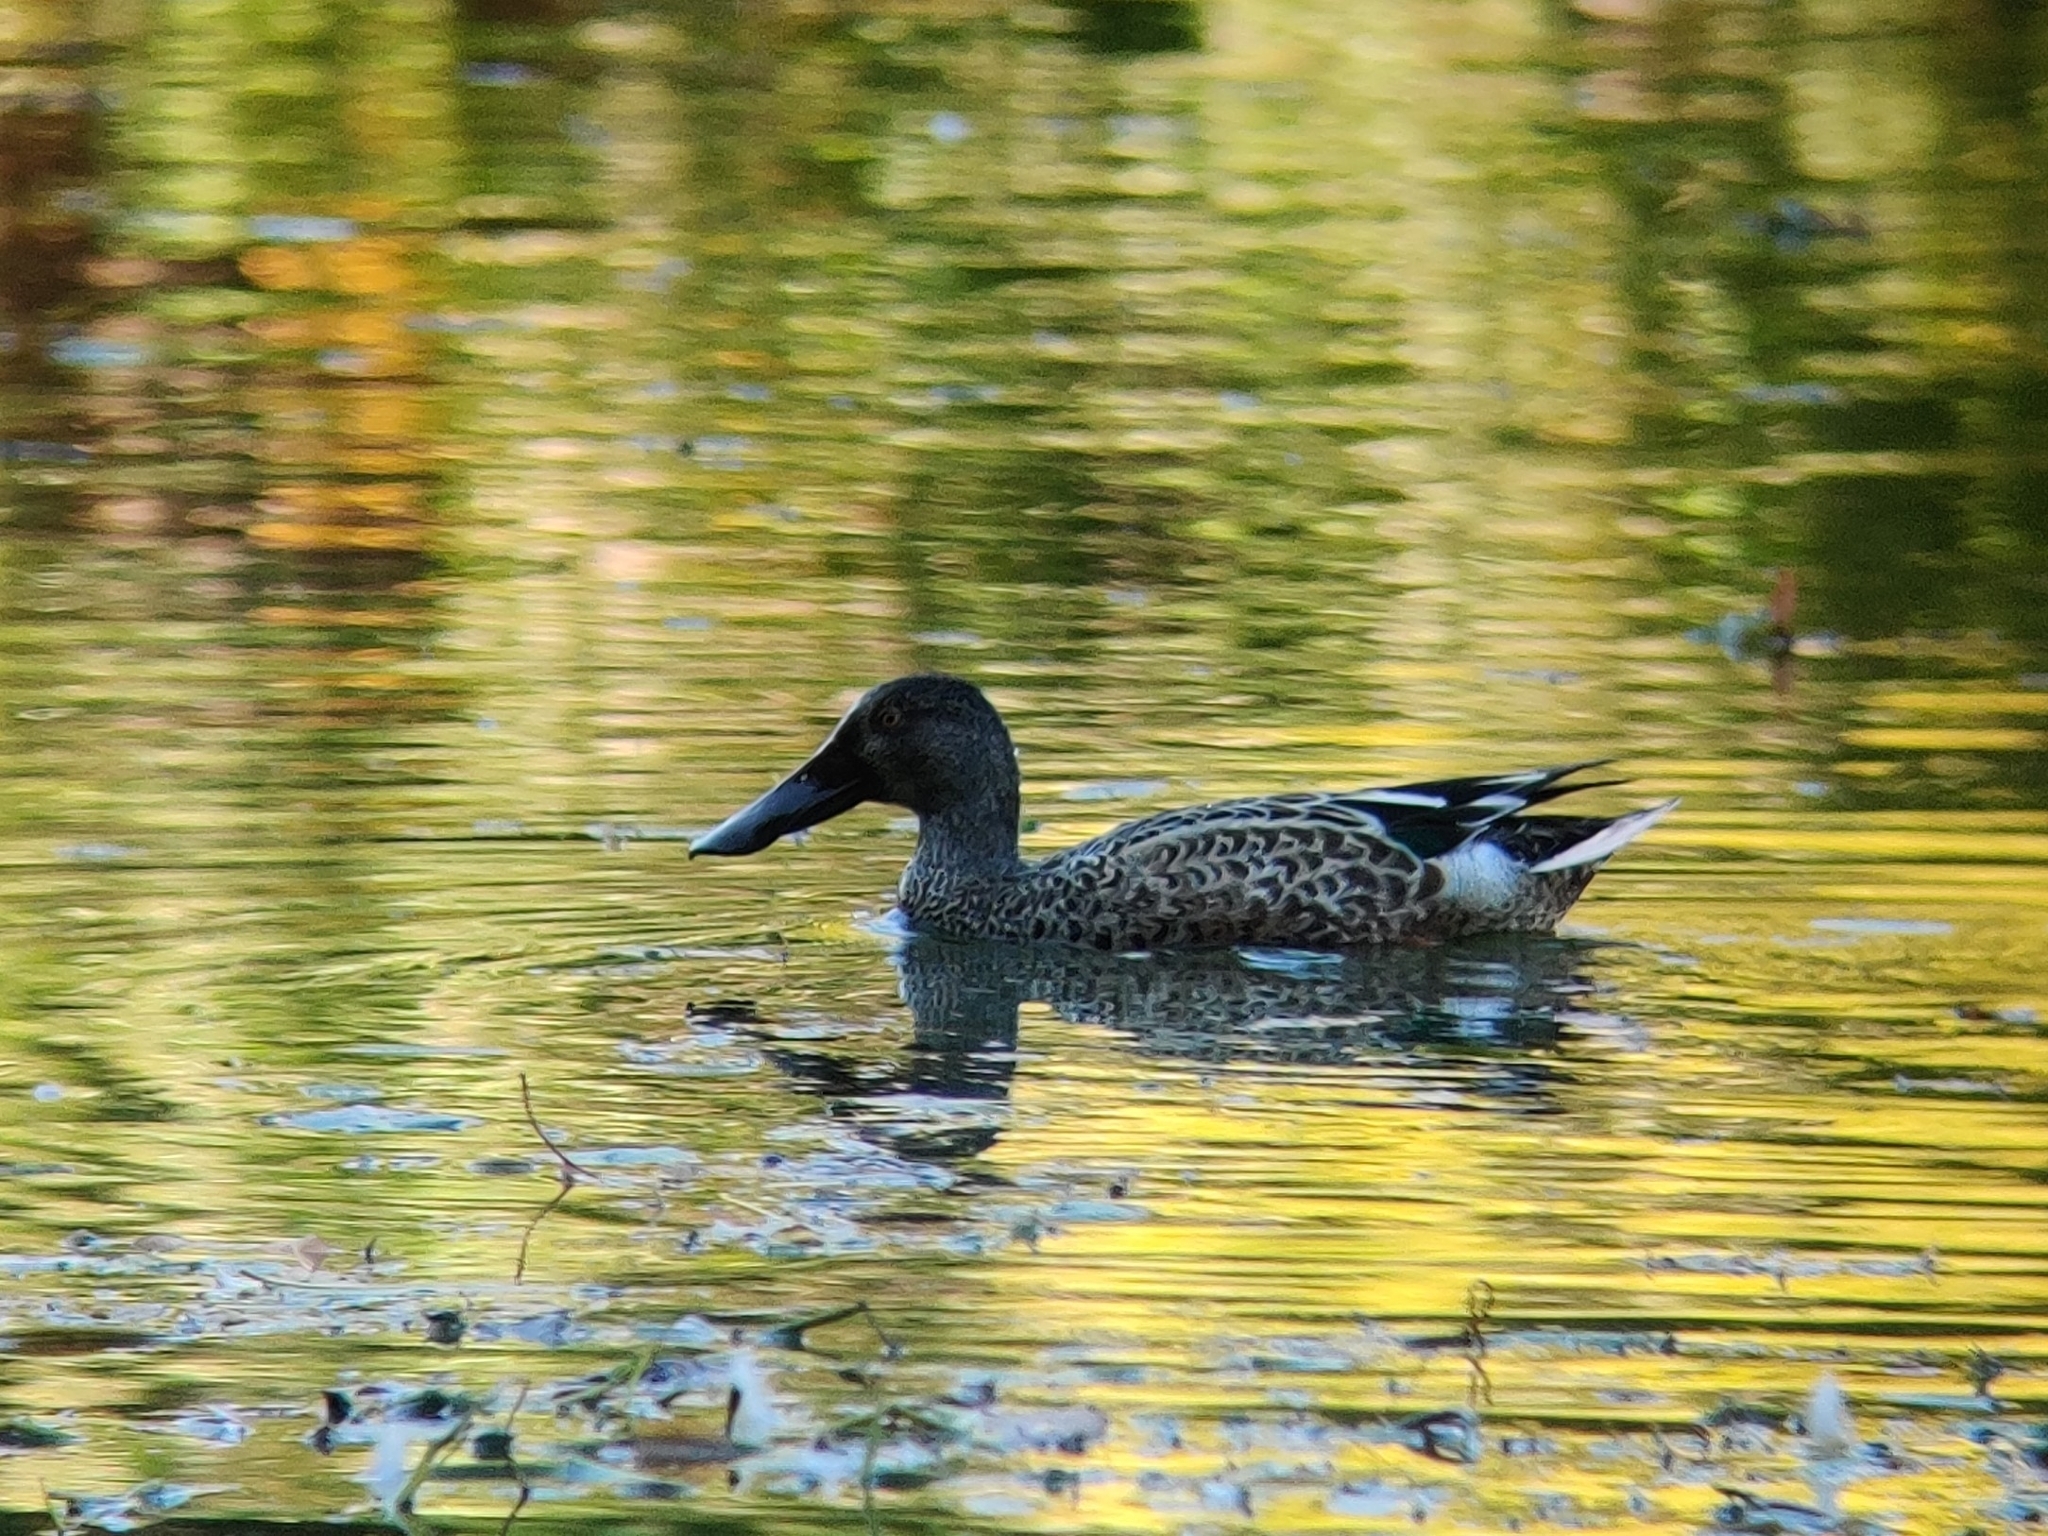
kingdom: Animalia
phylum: Chordata
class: Aves
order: Anseriformes
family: Anatidae
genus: Spatula
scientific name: Spatula clypeata
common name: Northern shoveler
